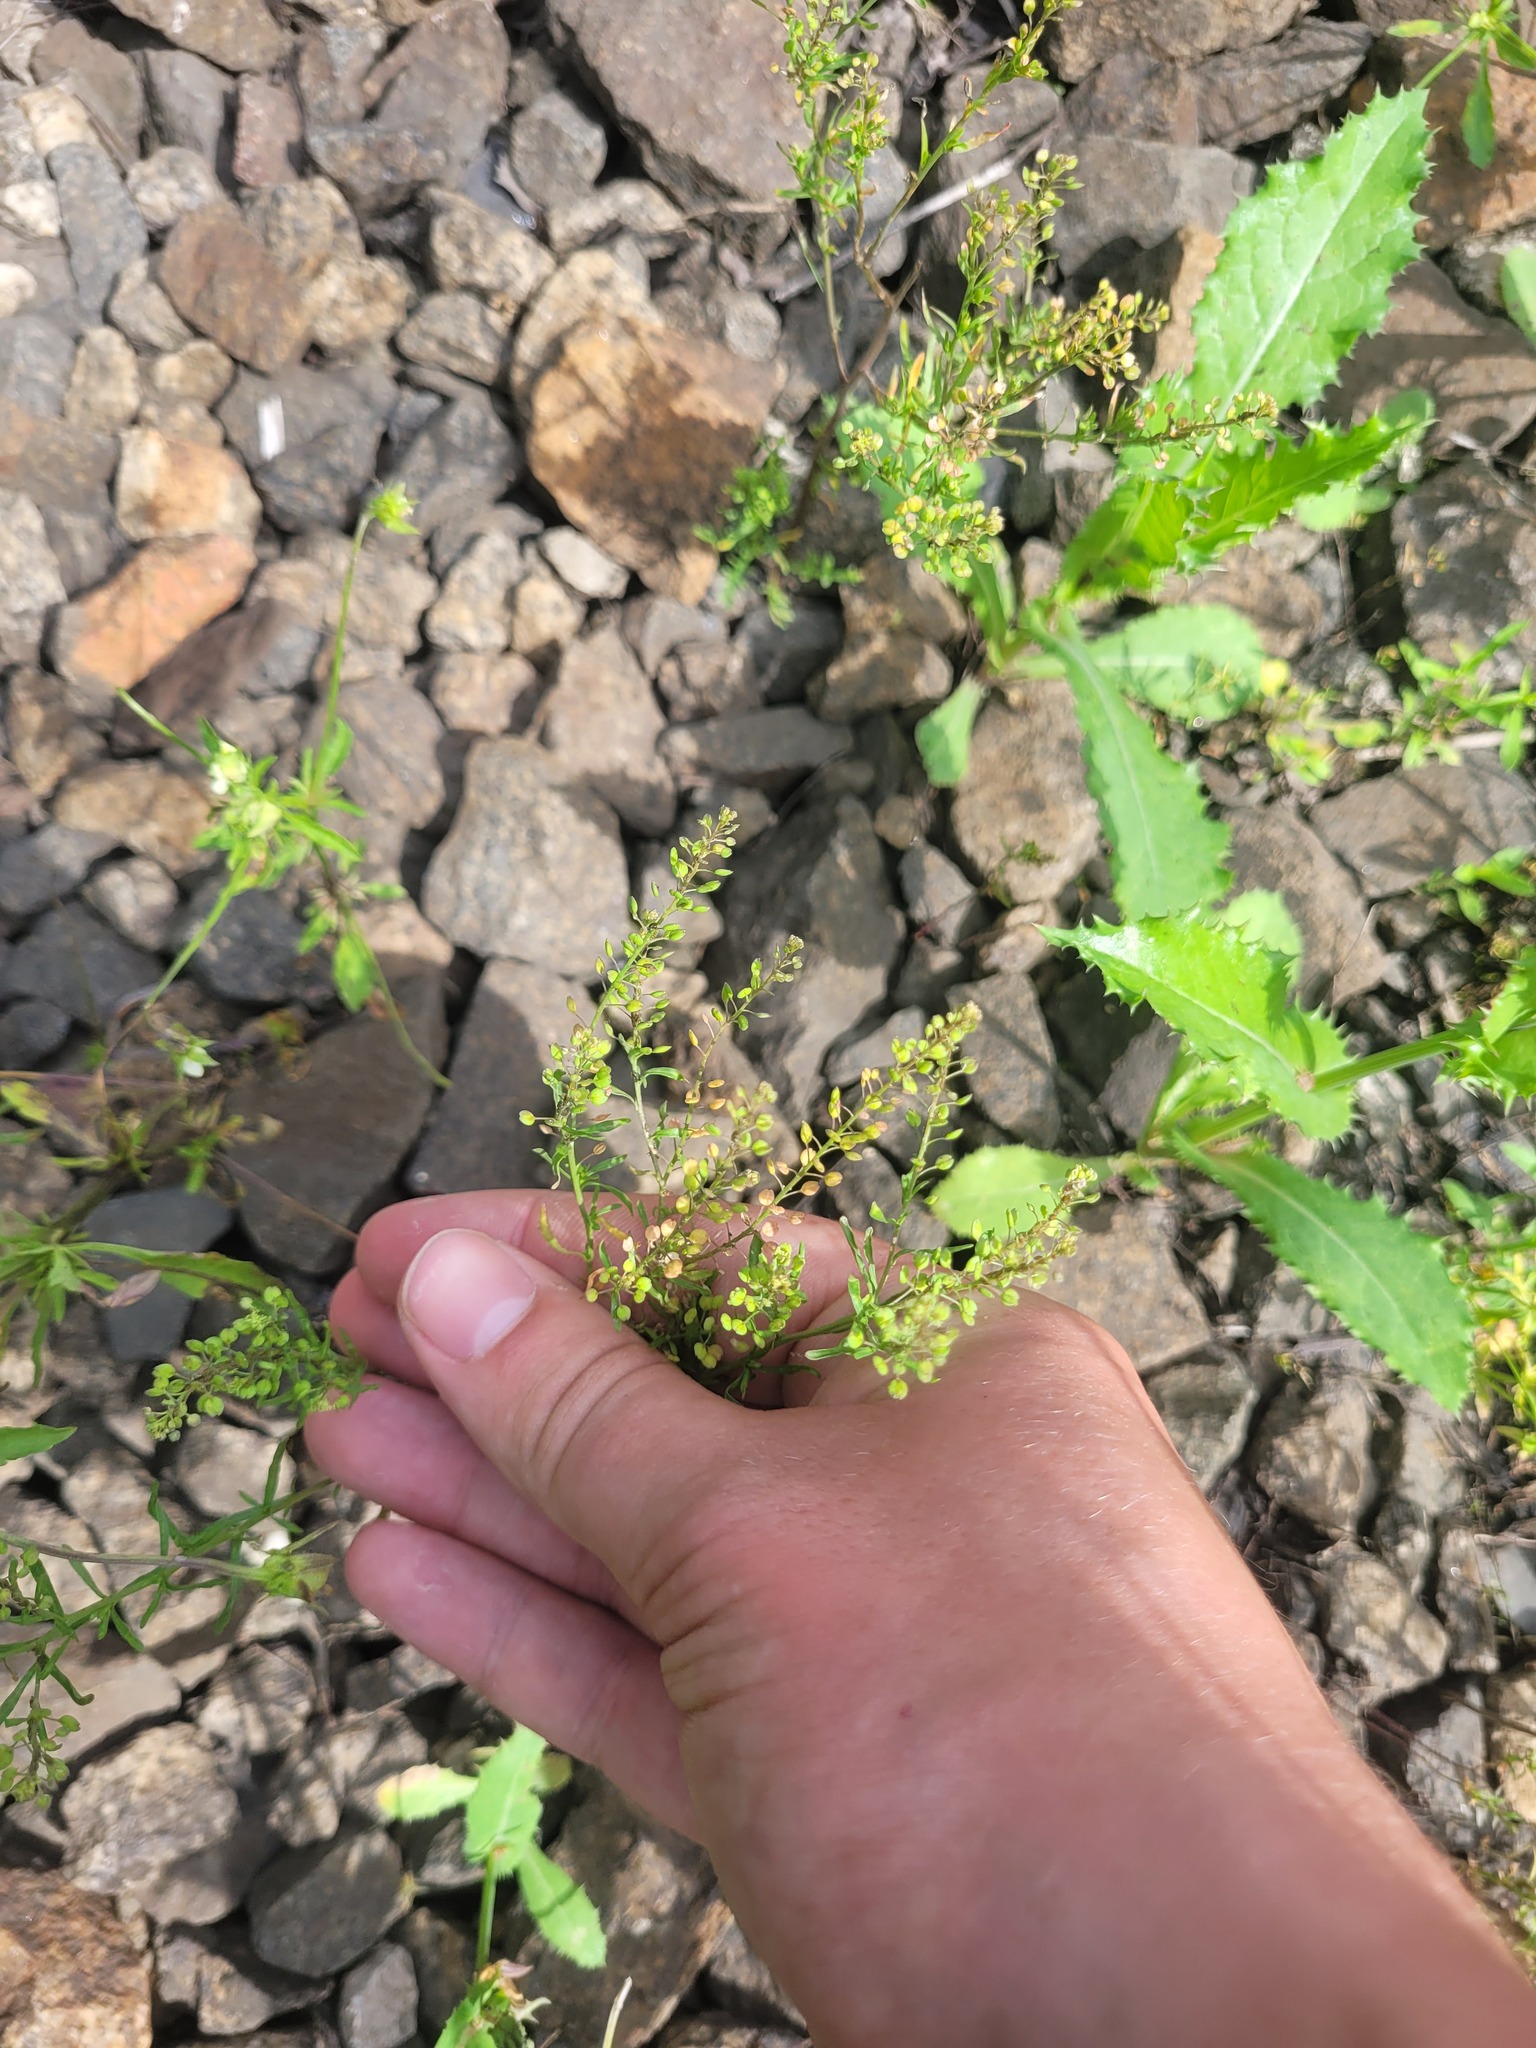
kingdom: Plantae
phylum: Tracheophyta
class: Magnoliopsida
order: Brassicales
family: Brassicaceae
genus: Lepidium
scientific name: Lepidium ruderale
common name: Narrow-leaved pepperwort
